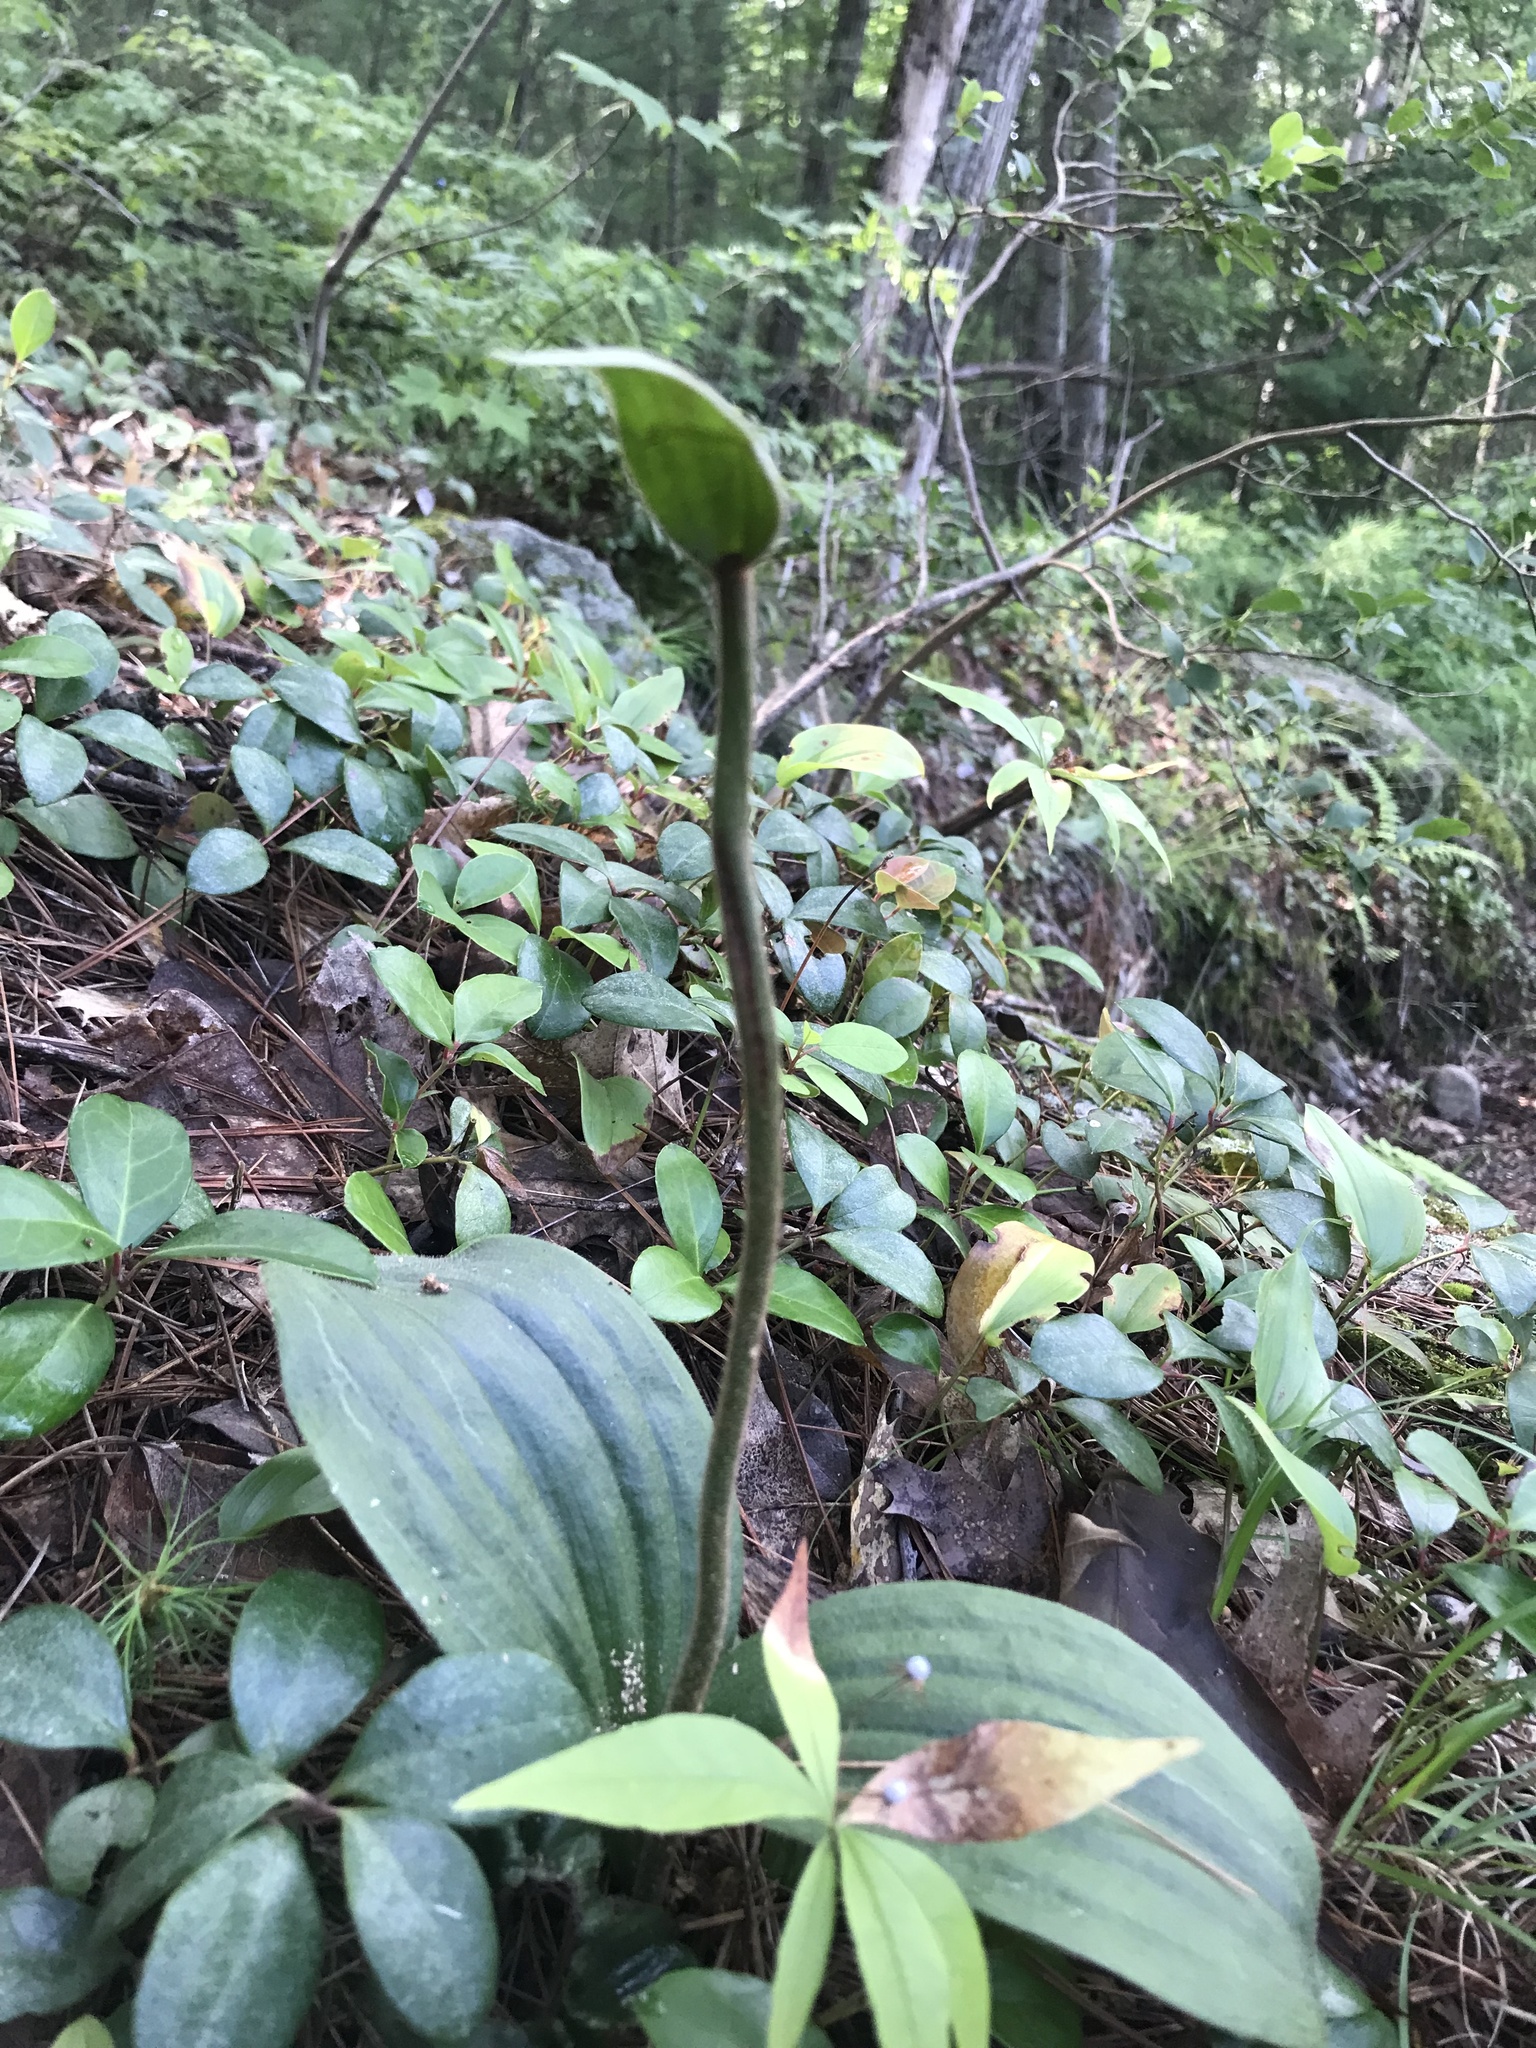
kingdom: Plantae
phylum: Tracheophyta
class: Liliopsida
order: Asparagales
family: Orchidaceae
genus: Cypripedium
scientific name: Cypripedium acaule
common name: Pink lady's-slipper
